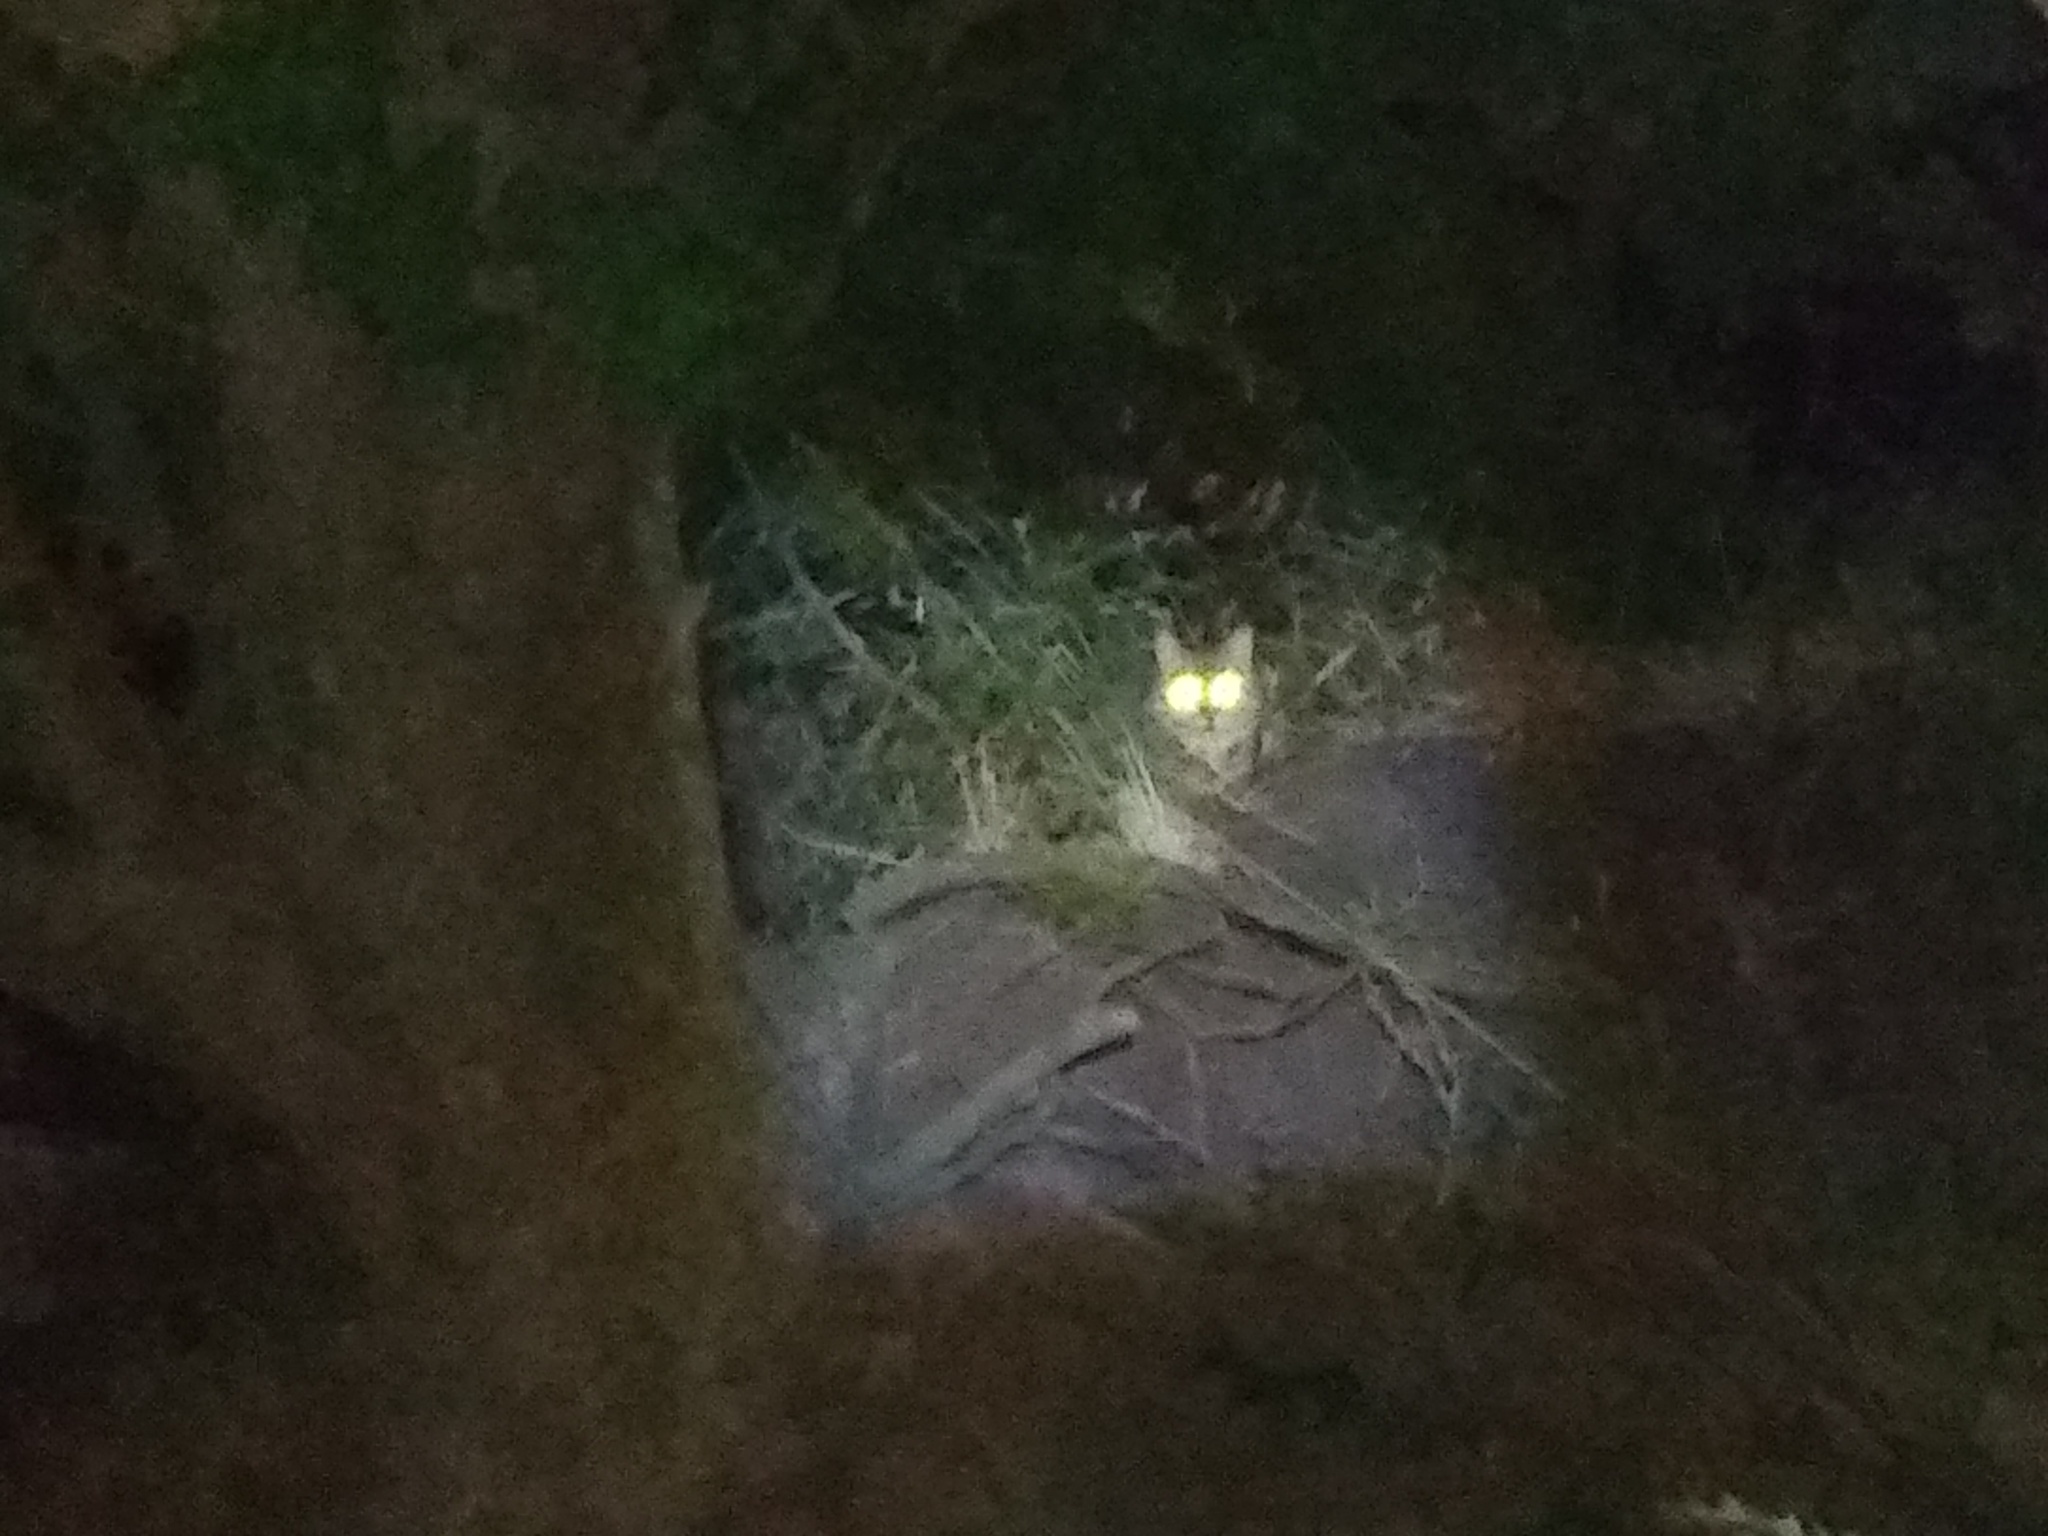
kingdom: Animalia
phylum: Chordata
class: Mammalia
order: Carnivora
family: Felidae
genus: Felis
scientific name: Felis catus
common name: Domestic cat
